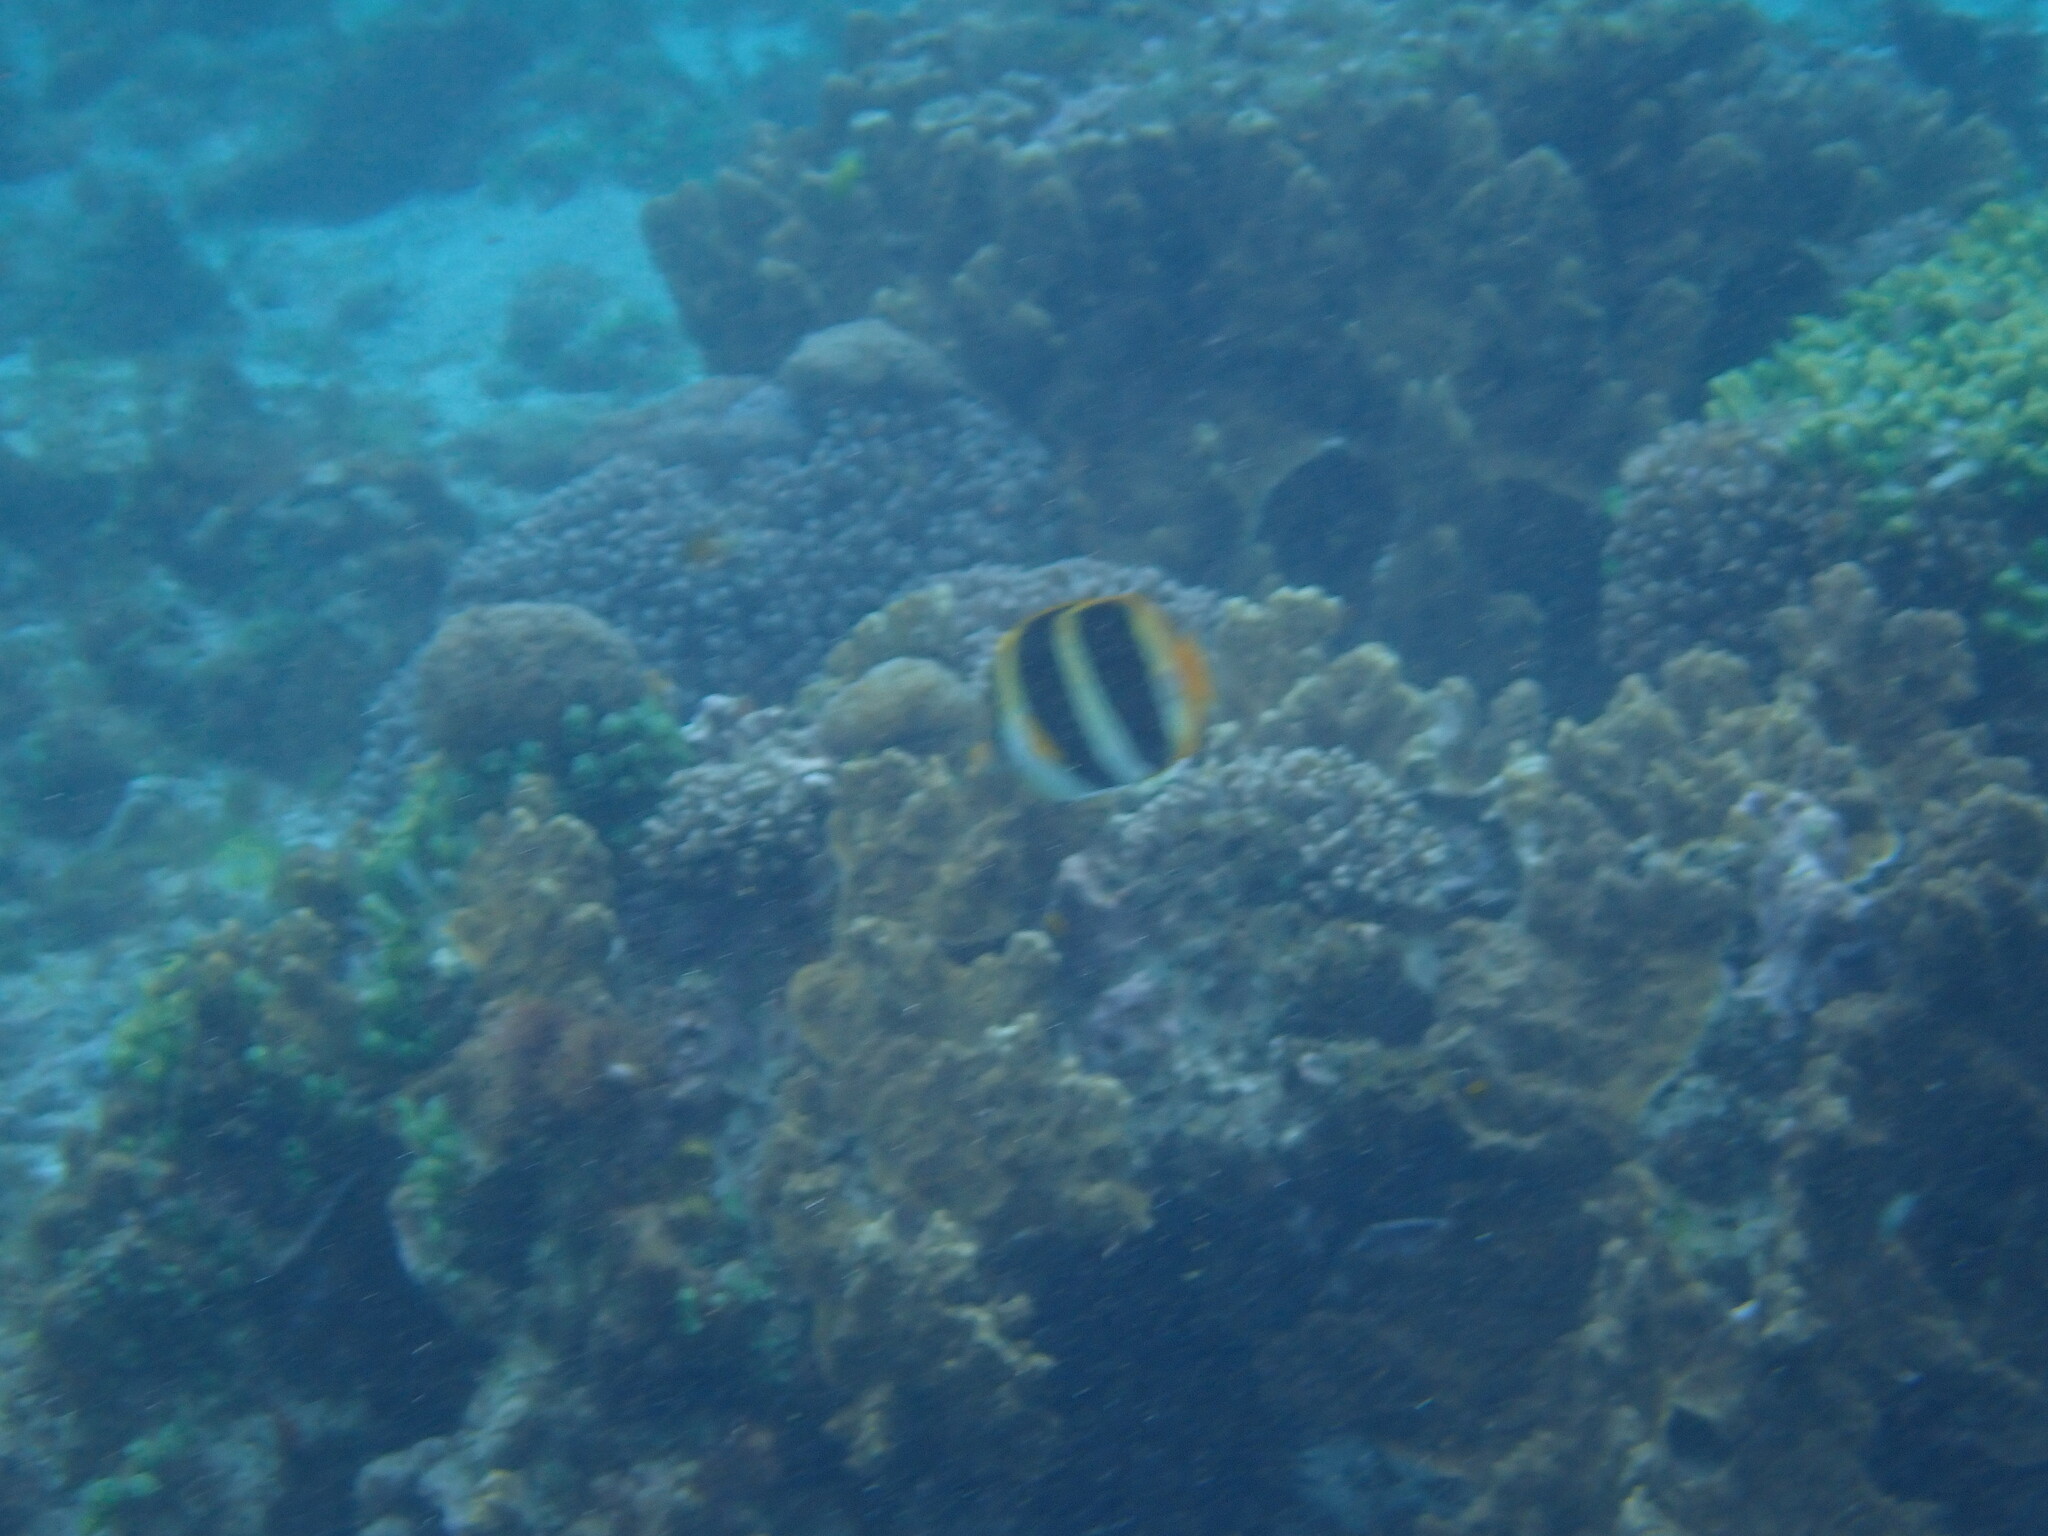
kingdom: Animalia
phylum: Chordata
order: Perciformes
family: Chaetodontidae
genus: Chaetodon
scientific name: Chaetodon tricinctus
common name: Three-striped butterflyfish
